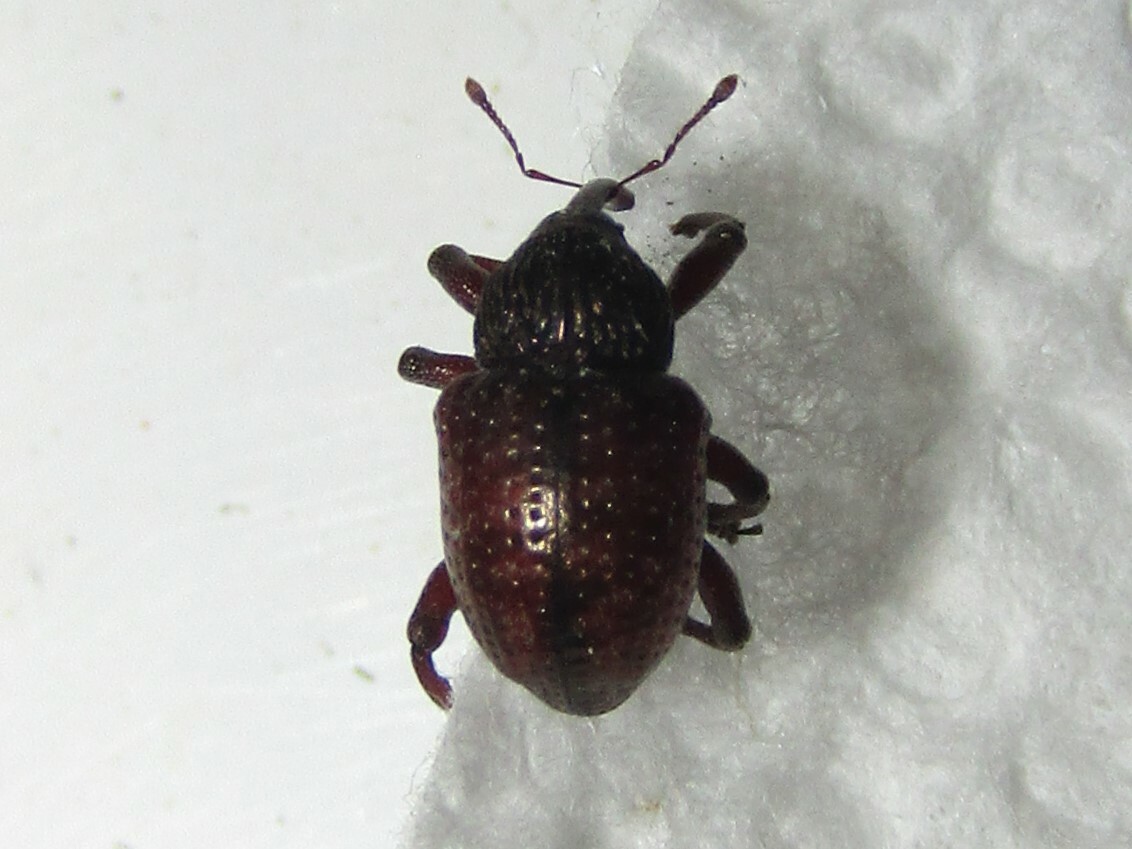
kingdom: Animalia
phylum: Arthropoda
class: Insecta
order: Coleoptera
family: Curculionidae
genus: Chalcodermus
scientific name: Chalcodermus collaris
